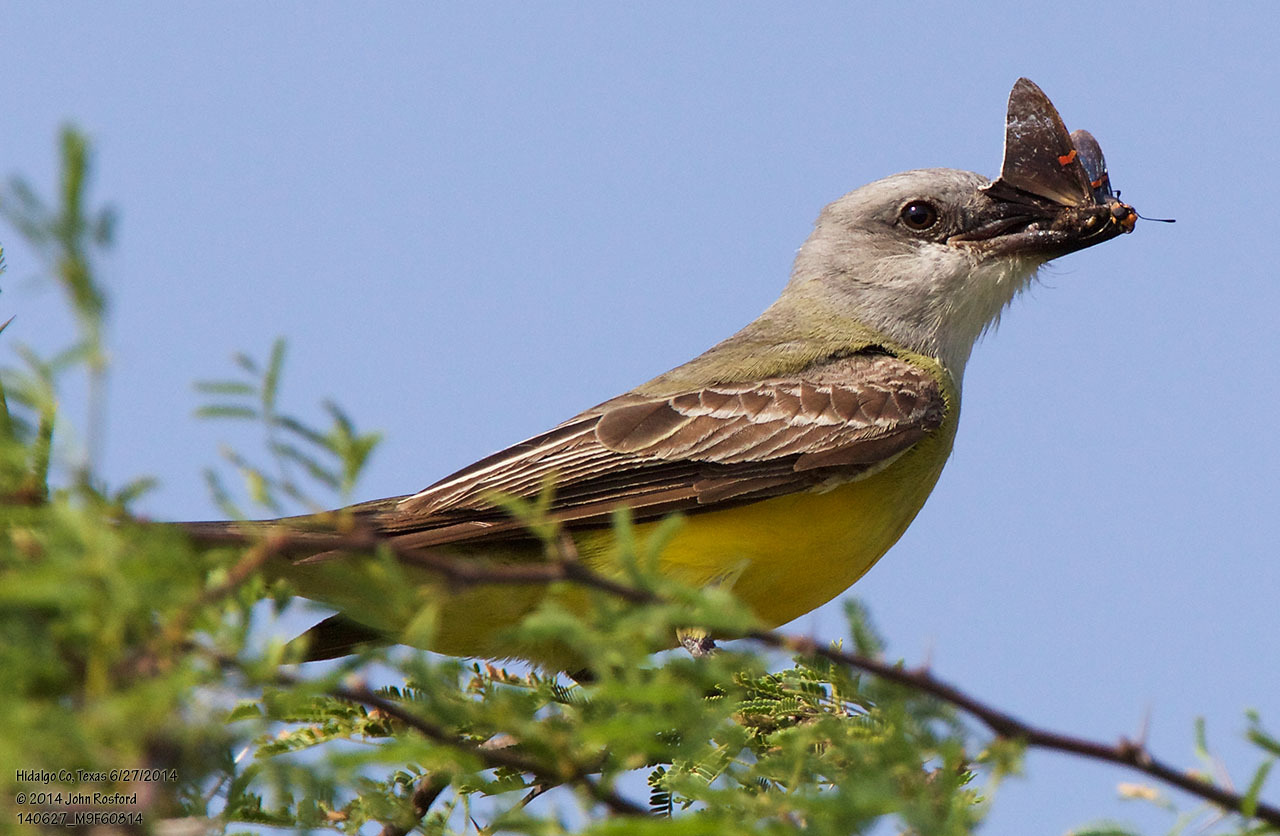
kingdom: Animalia
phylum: Chordata
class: Aves
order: Passeriformes
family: Tyrannidae
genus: Tyrannus
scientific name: Tyrannus couchii
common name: Couch's kingbird
